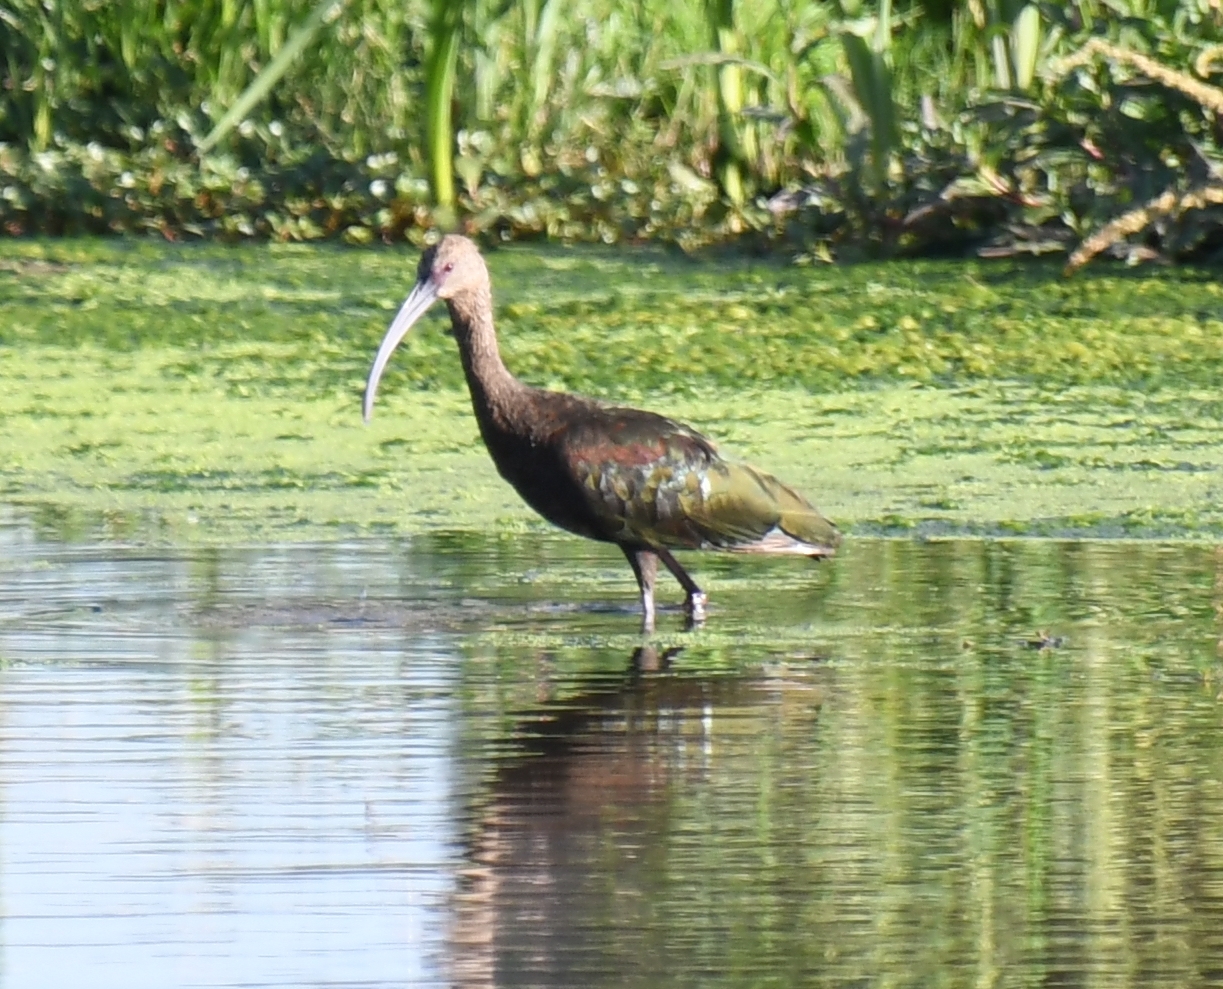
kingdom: Animalia
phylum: Chordata
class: Aves
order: Pelecaniformes
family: Threskiornithidae
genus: Plegadis
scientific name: Plegadis chihi
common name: White-faced ibis
